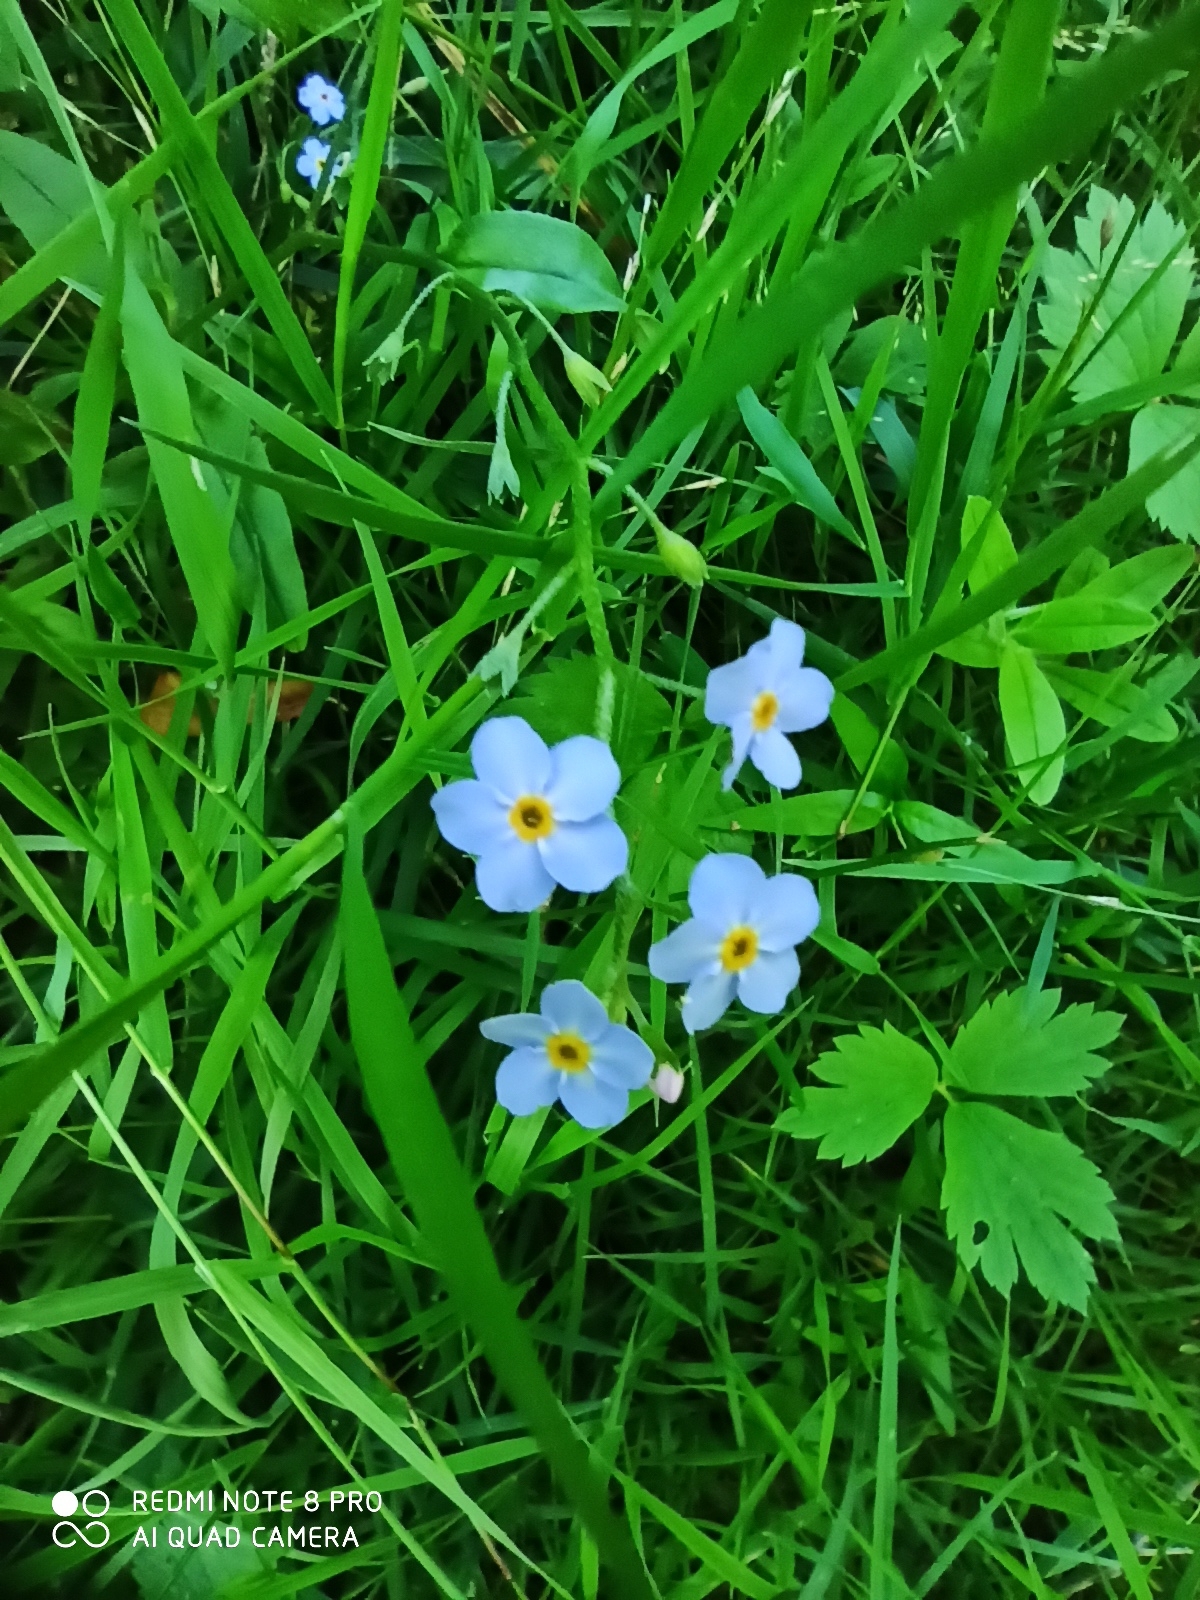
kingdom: Plantae
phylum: Tracheophyta
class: Magnoliopsida
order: Boraginales
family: Boraginaceae
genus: Myosotis
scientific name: Myosotis scorpioides
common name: Water forget-me-not
